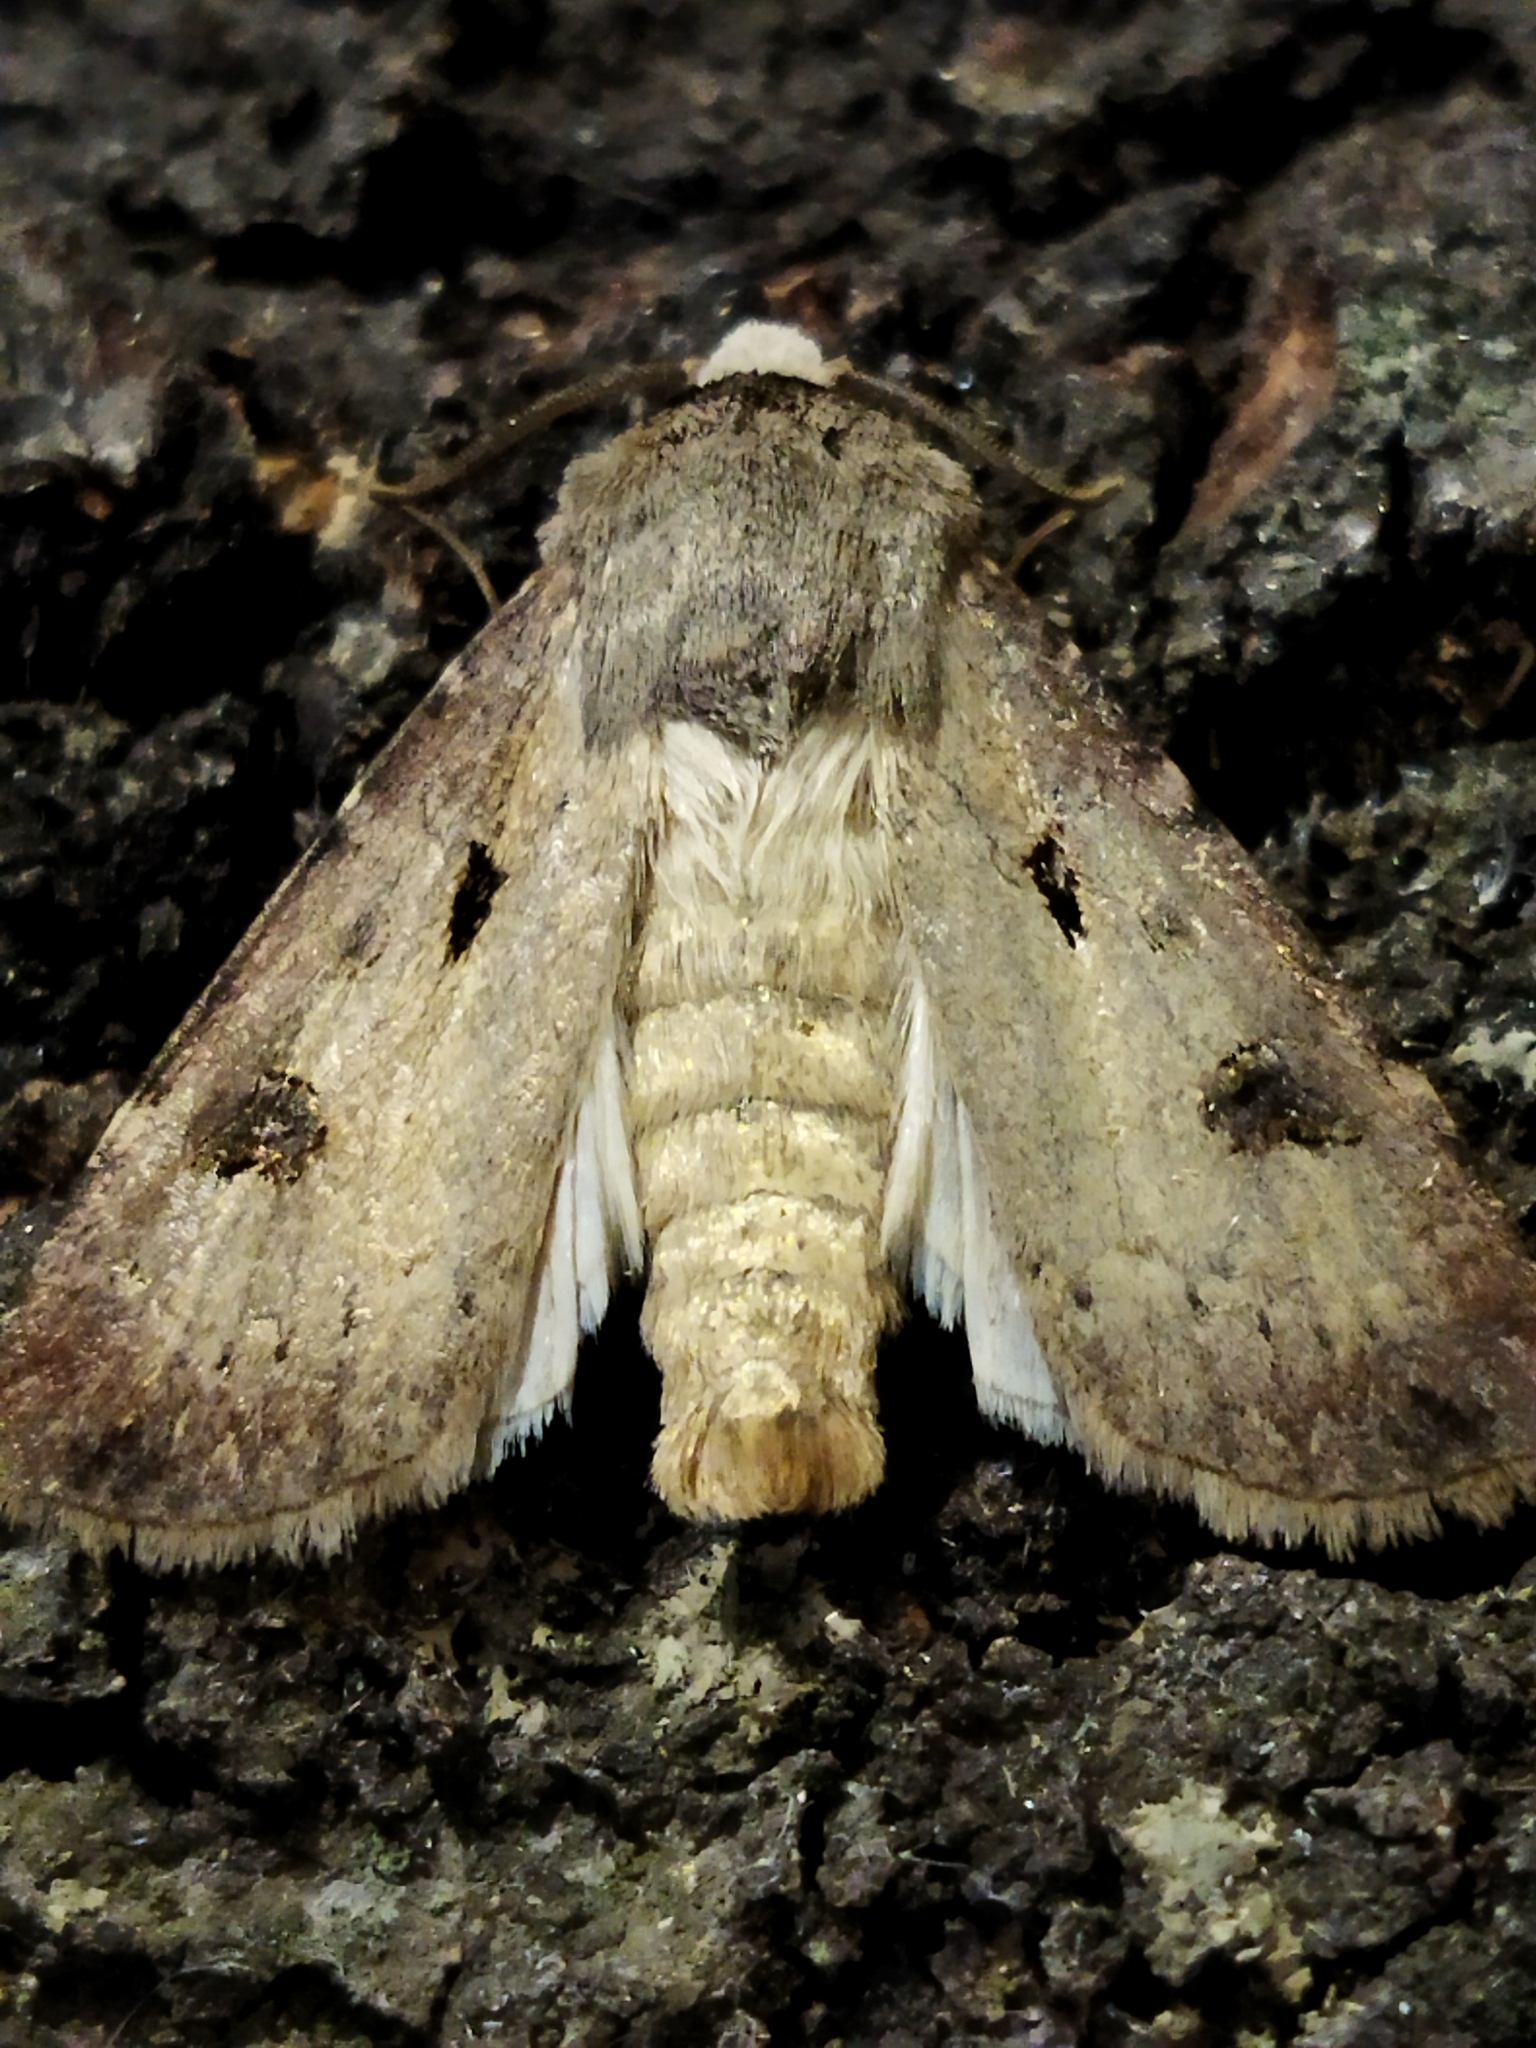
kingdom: Animalia
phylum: Arthropoda
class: Insecta
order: Lepidoptera
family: Noctuidae
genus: Agrotis
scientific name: Agrotis exclamationis
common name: Heart and dart
